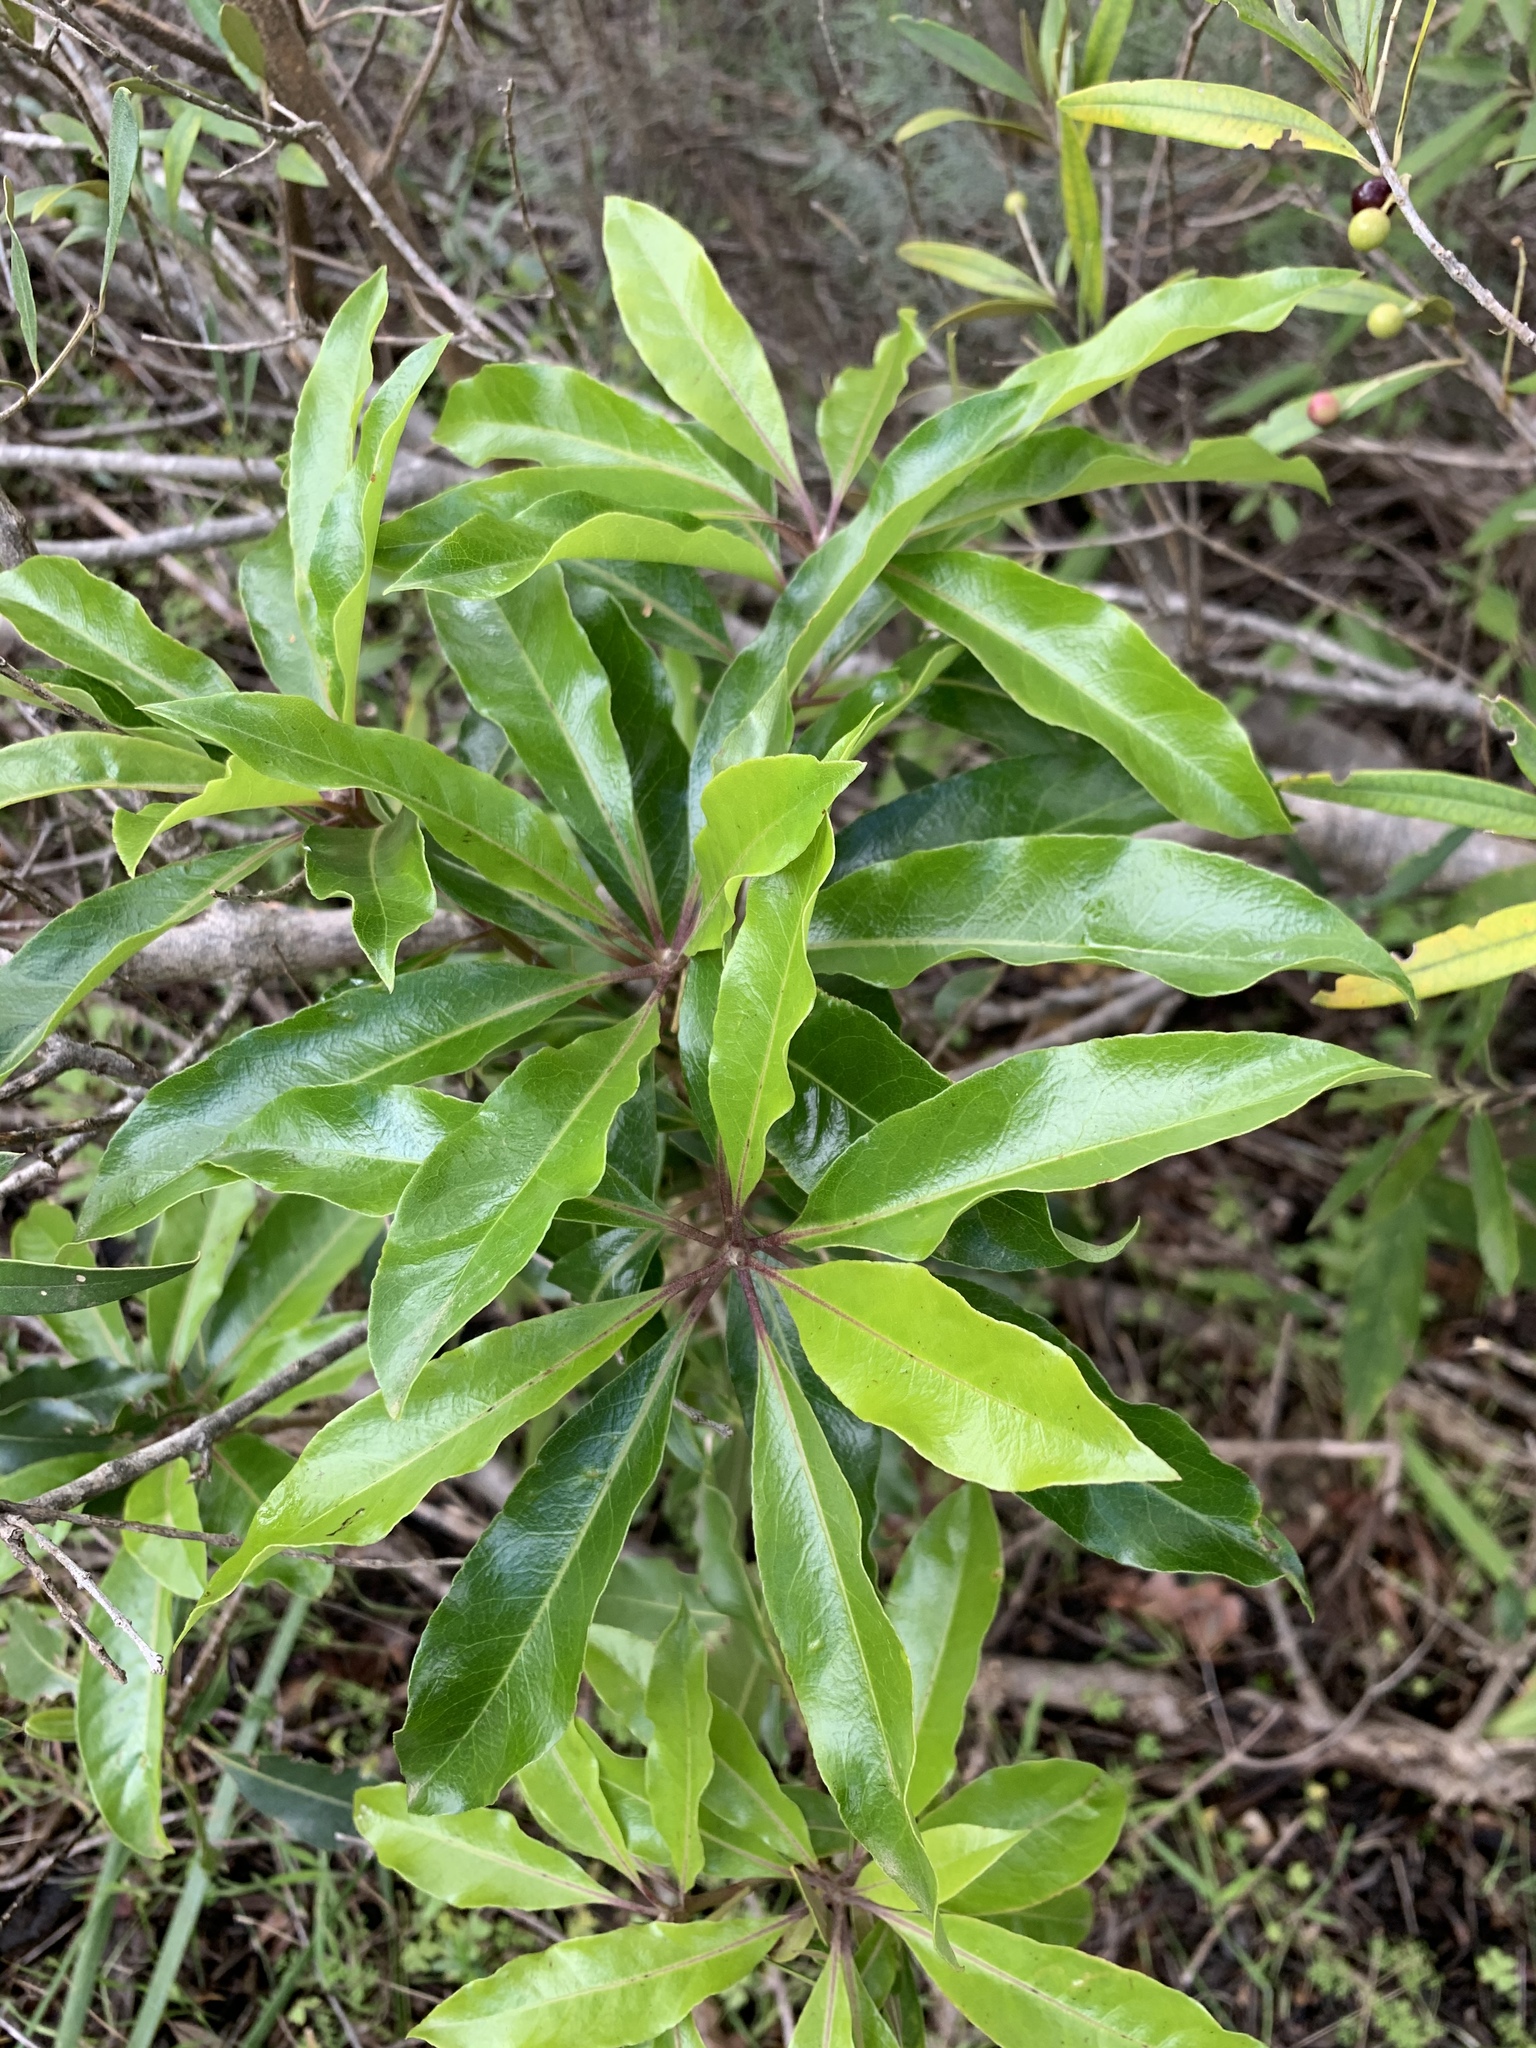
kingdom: Plantae
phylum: Tracheophyta
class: Magnoliopsida
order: Apiales
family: Pittosporaceae
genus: Pittosporum
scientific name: Pittosporum undulatum
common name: Australian cheesewood
